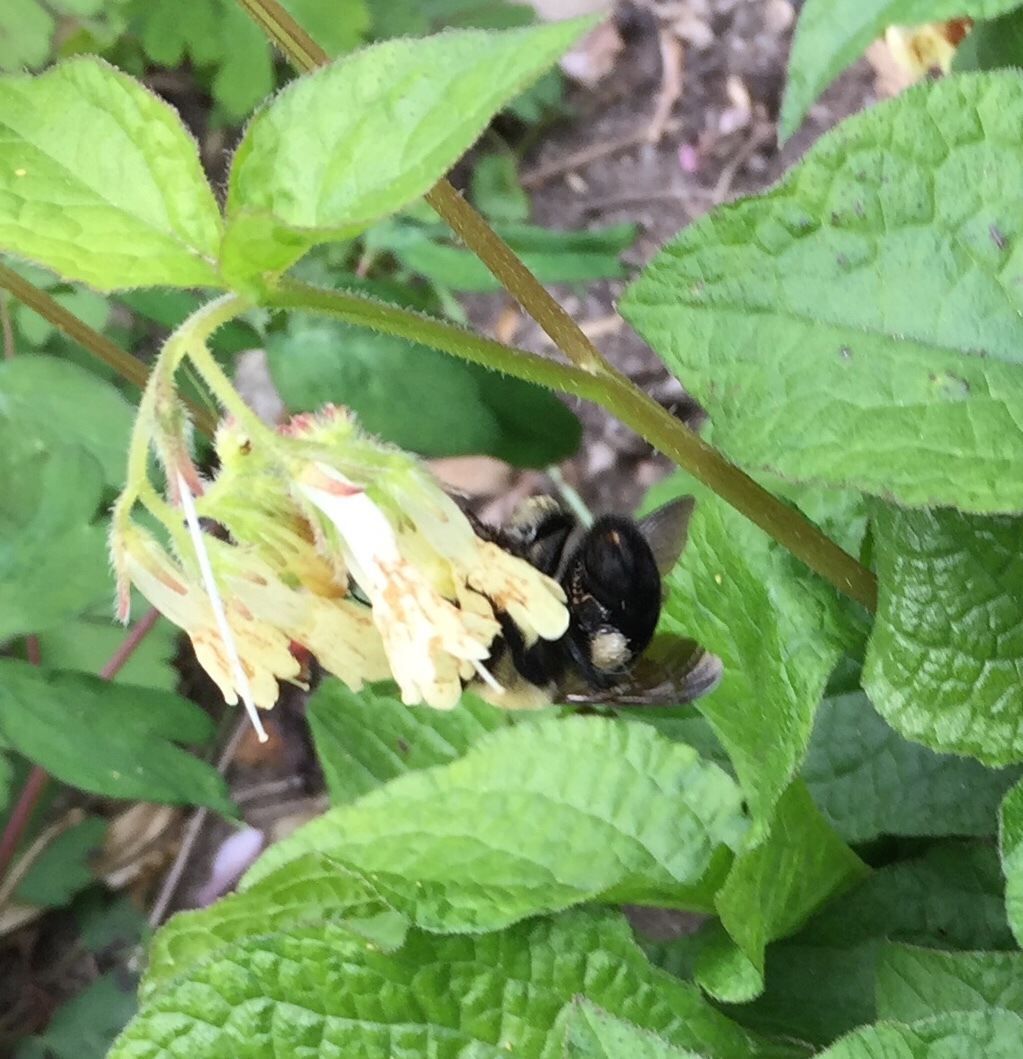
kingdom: Animalia
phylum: Arthropoda
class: Insecta
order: Hymenoptera
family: Apidae
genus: Bombus
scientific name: Bombus griseocollis
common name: Brown-belted bumble bee
